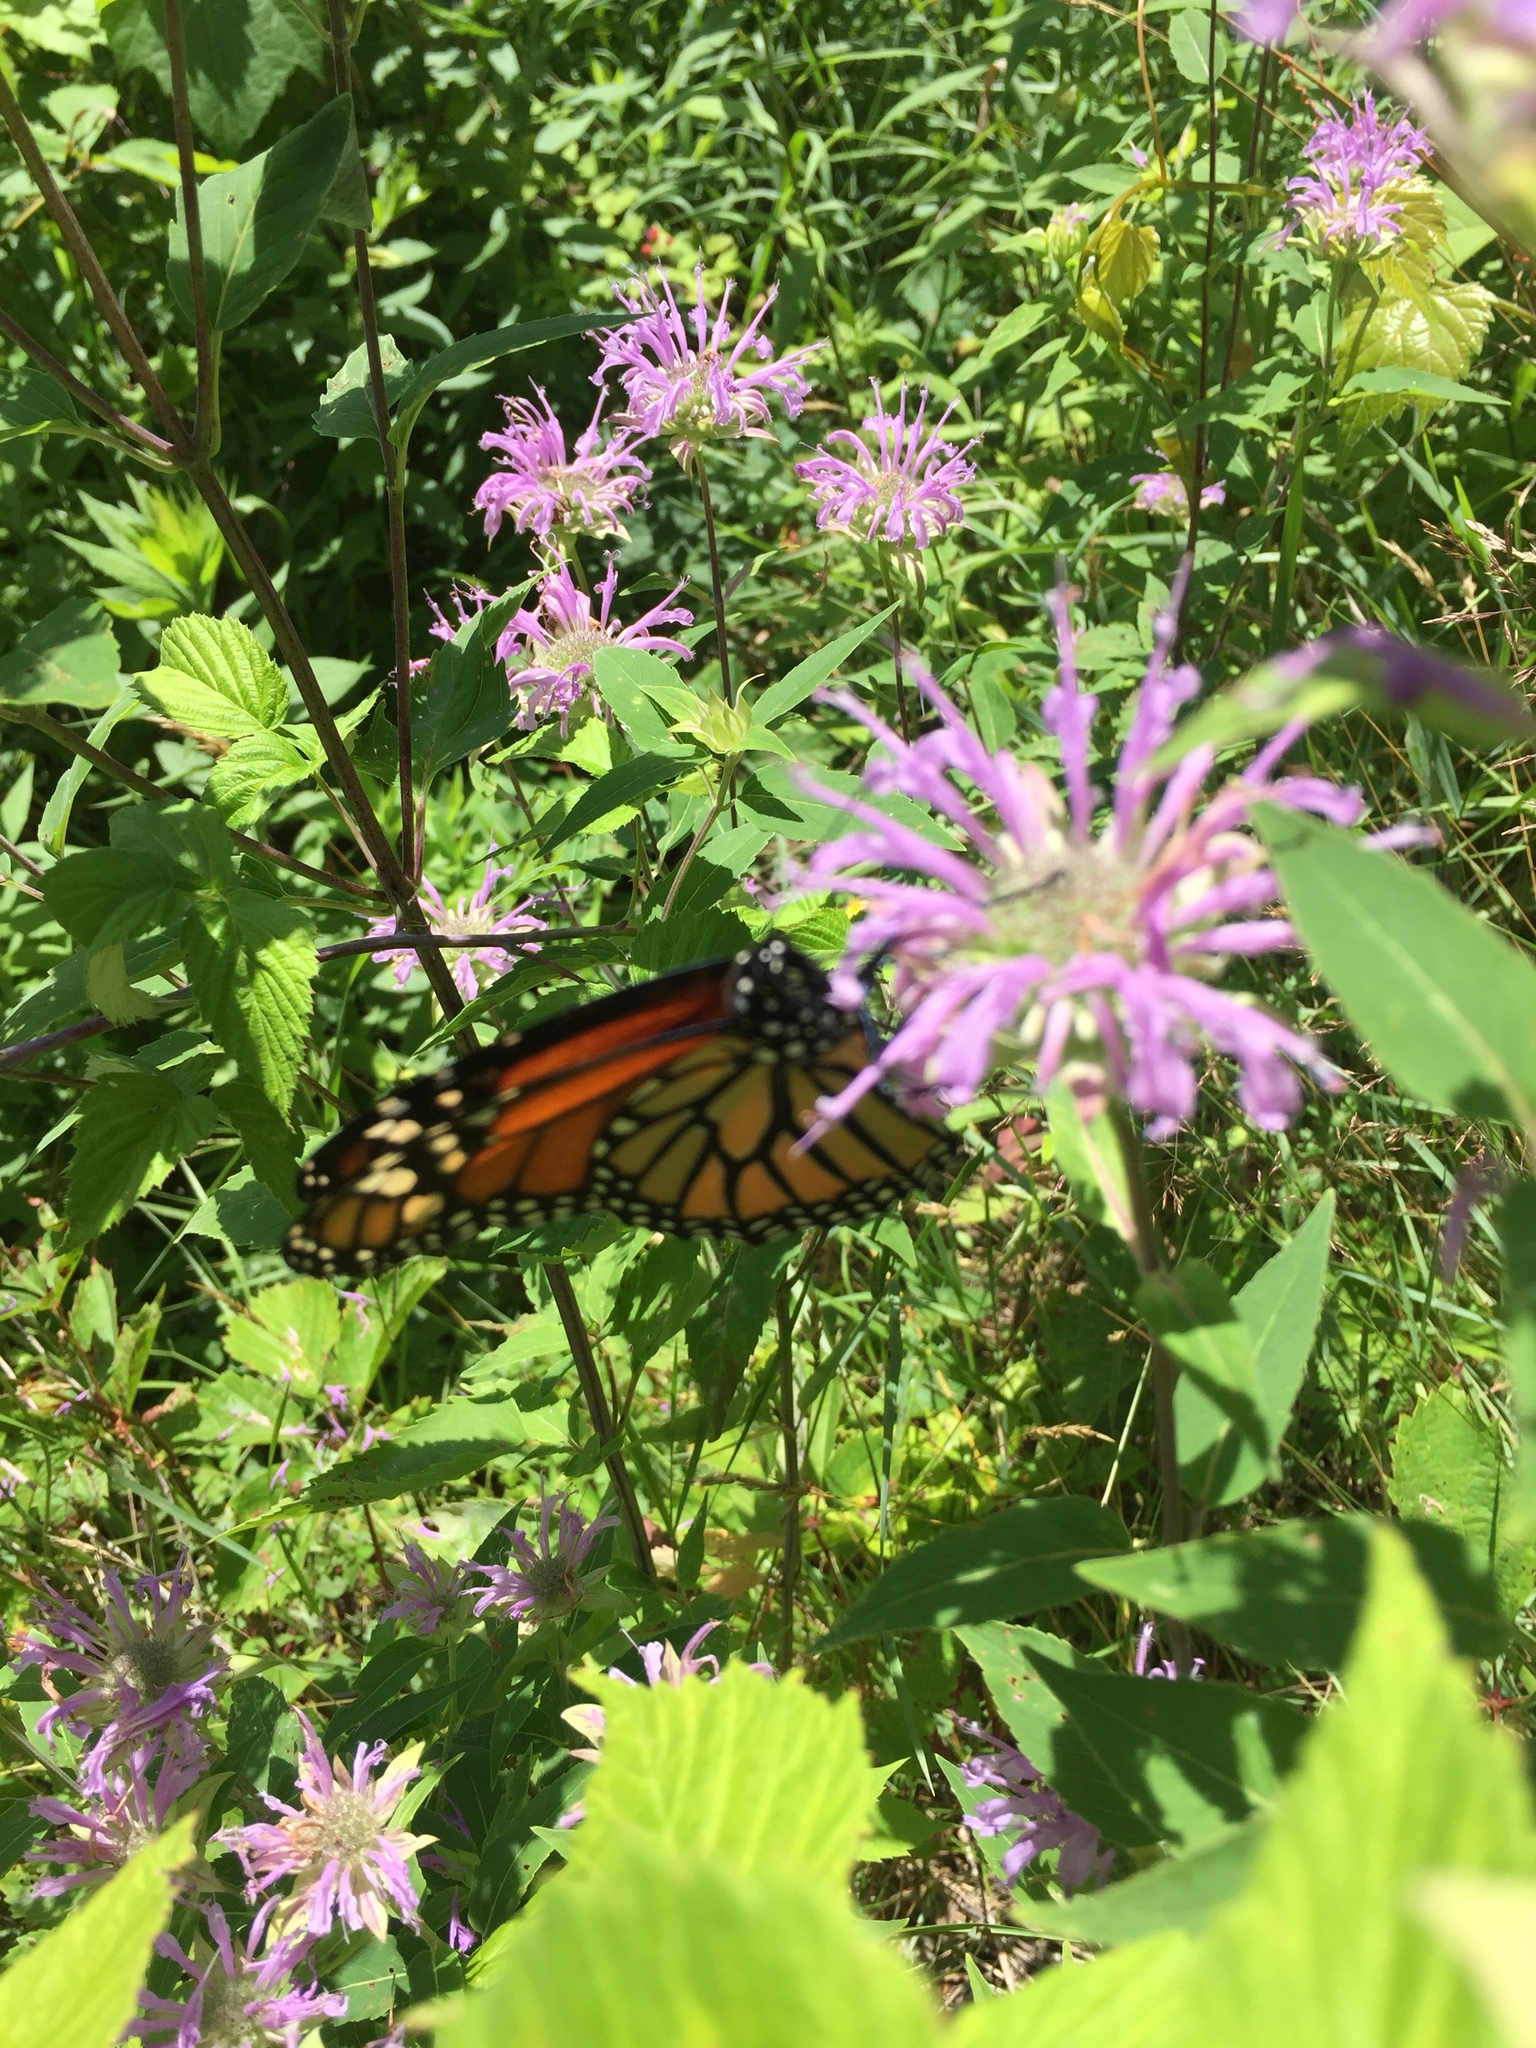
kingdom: Animalia
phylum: Arthropoda
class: Insecta
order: Lepidoptera
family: Nymphalidae
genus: Danaus
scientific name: Danaus plexippus
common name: Monarch
